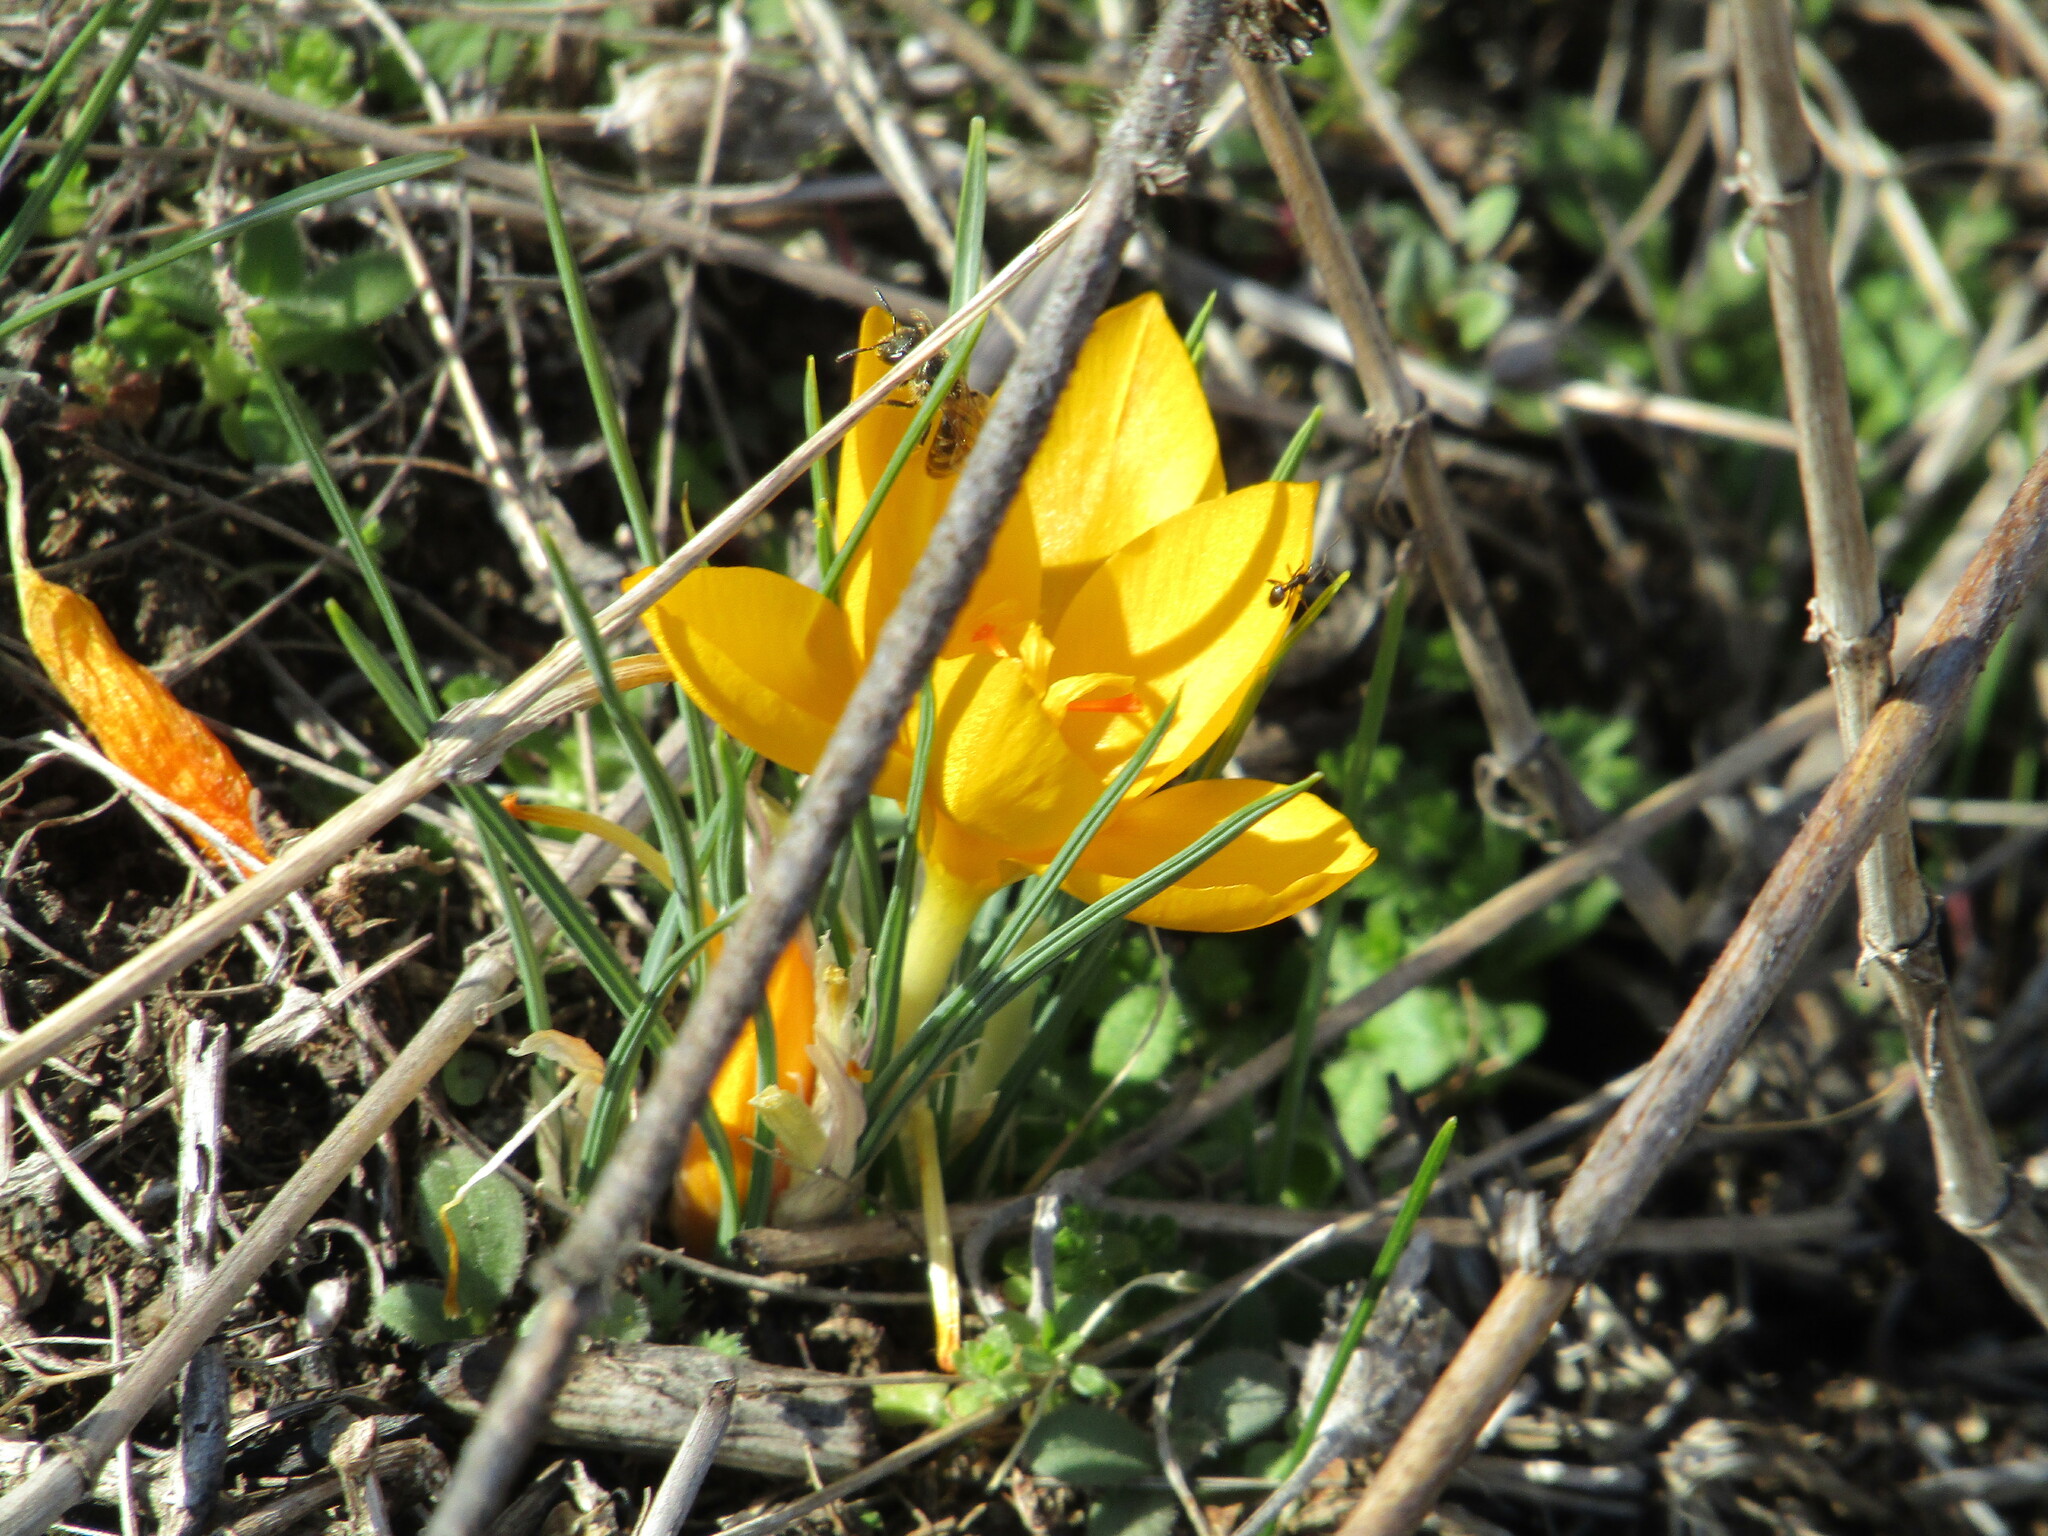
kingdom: Plantae
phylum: Tracheophyta
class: Liliopsida
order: Asparagales
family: Iridaceae
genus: Crocus
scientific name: Crocus chrysanthus
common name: Golden crocus
